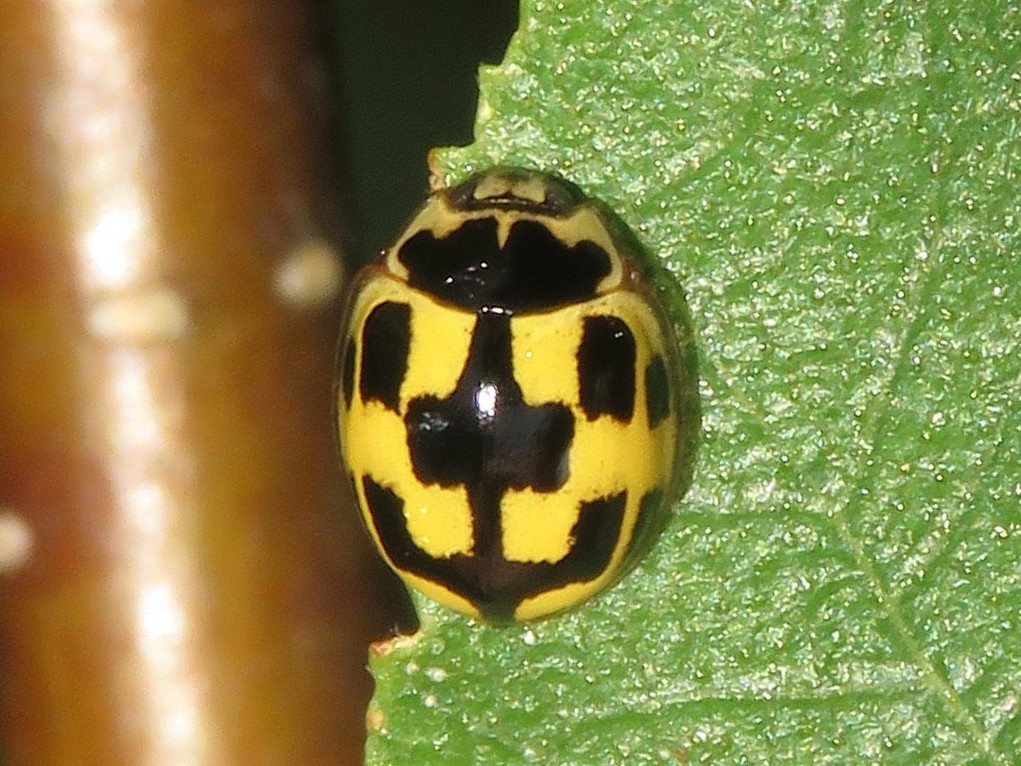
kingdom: Animalia
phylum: Arthropoda
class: Insecta
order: Coleoptera
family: Coccinellidae
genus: Propylaea
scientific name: Propylaea quatuordecimpunctata
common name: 14-spotted ladybird beetle
